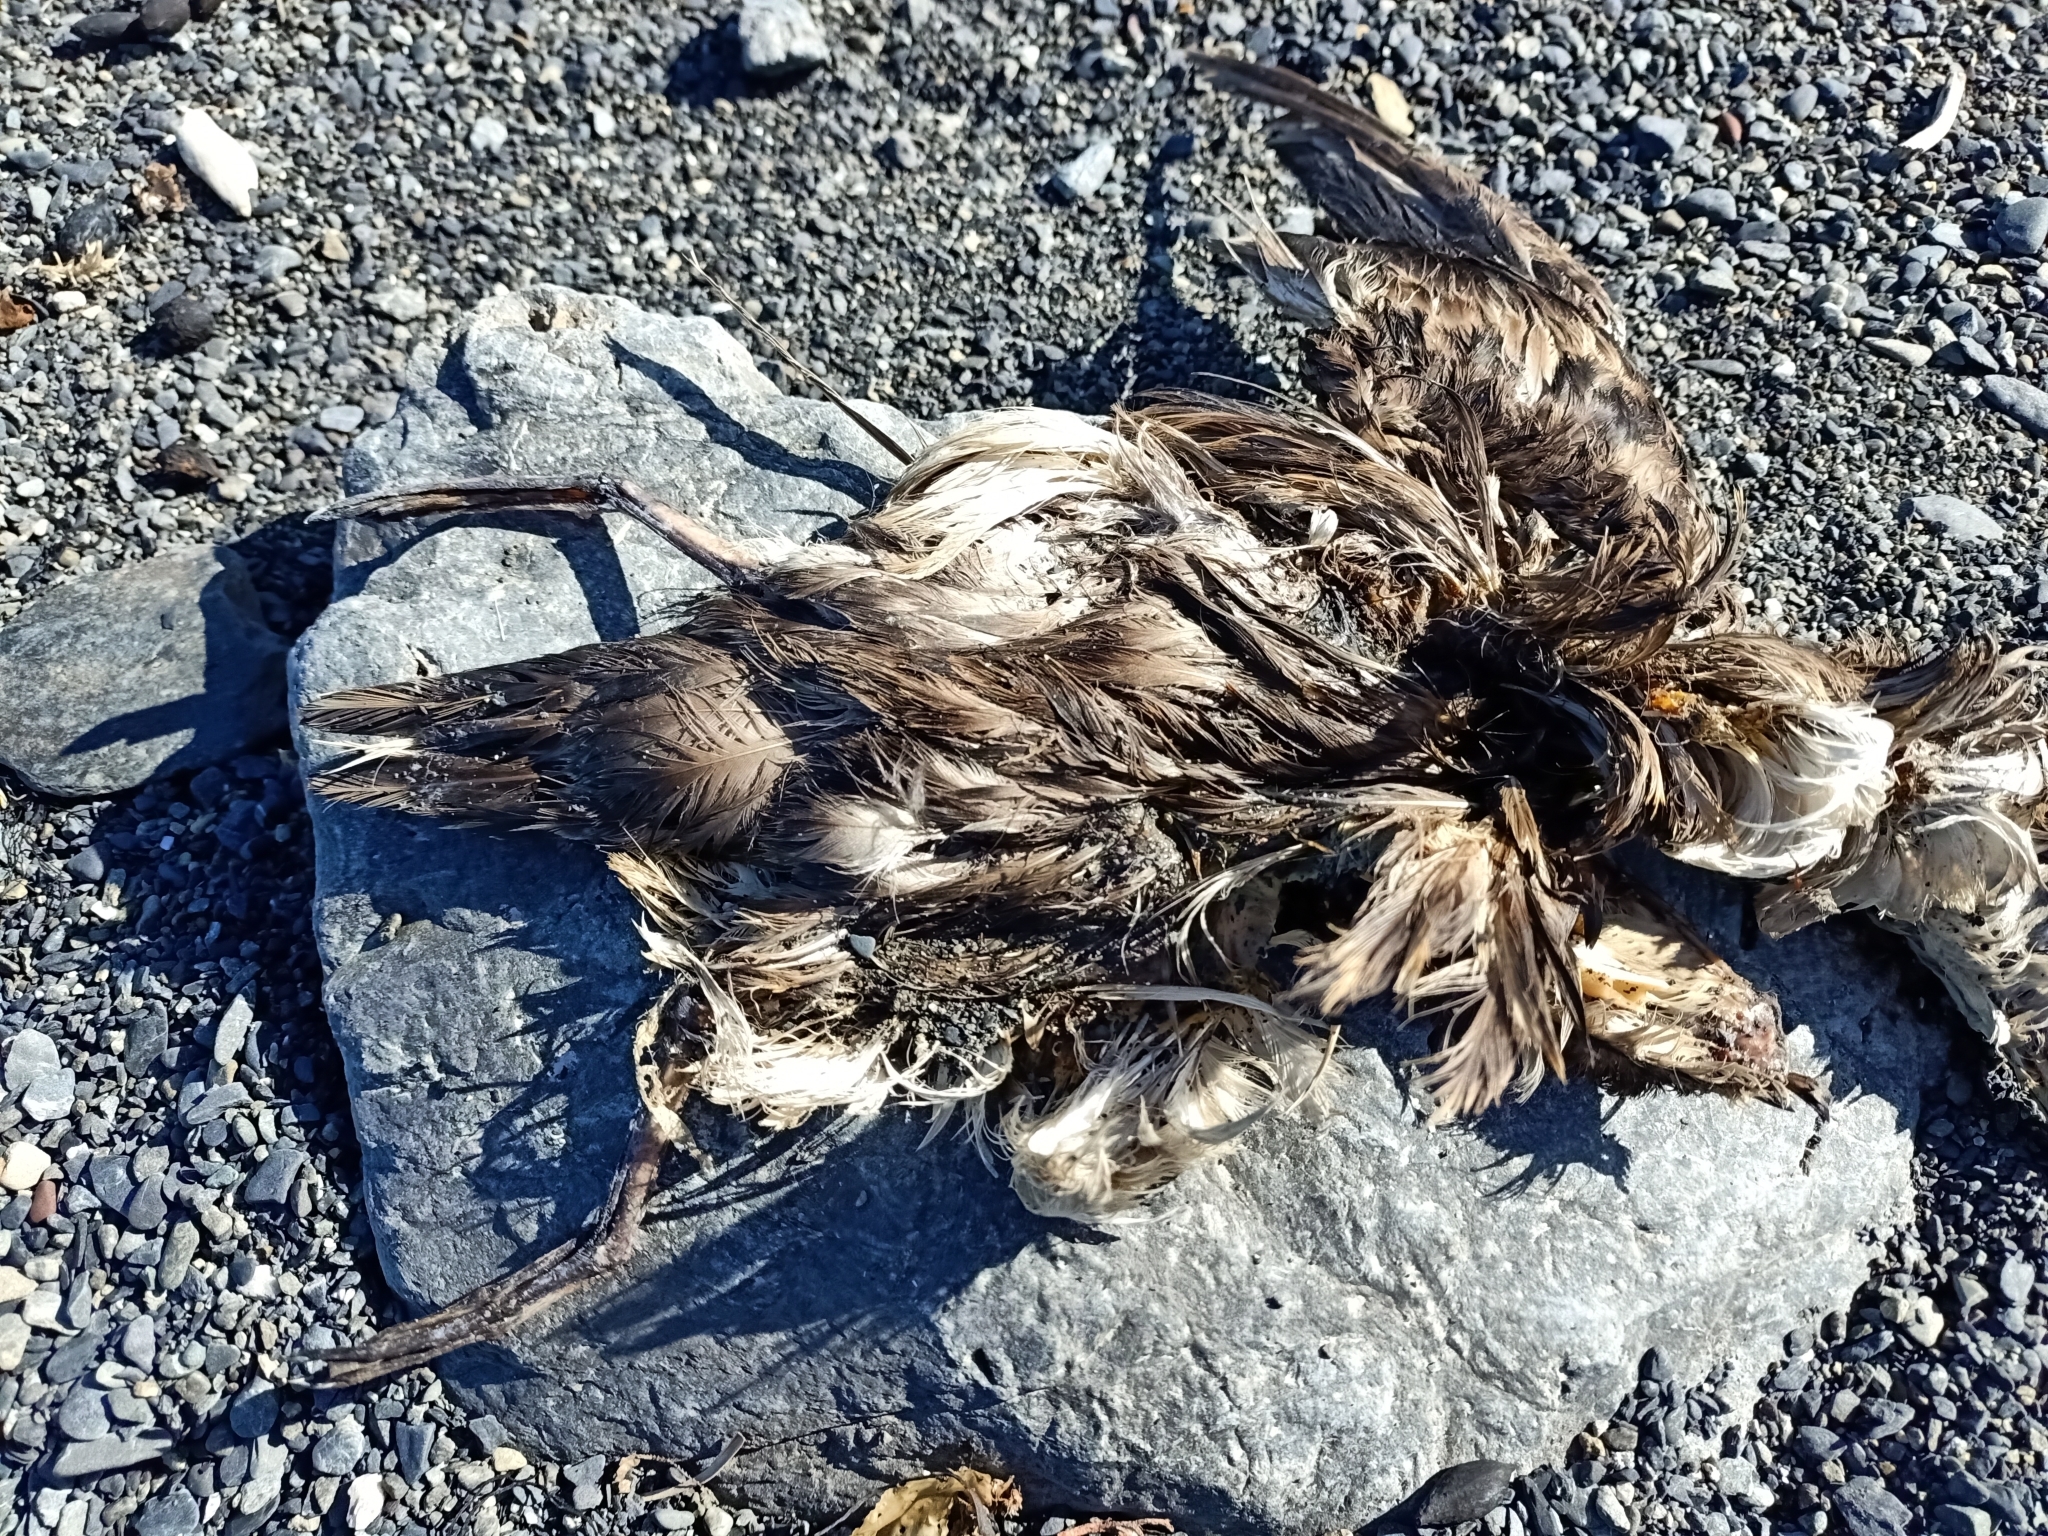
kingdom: Animalia
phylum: Chordata
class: Aves
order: Procellariiformes
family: Procellariidae
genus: Puffinus
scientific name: Puffinus gavia
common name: Fluttering shearwater
